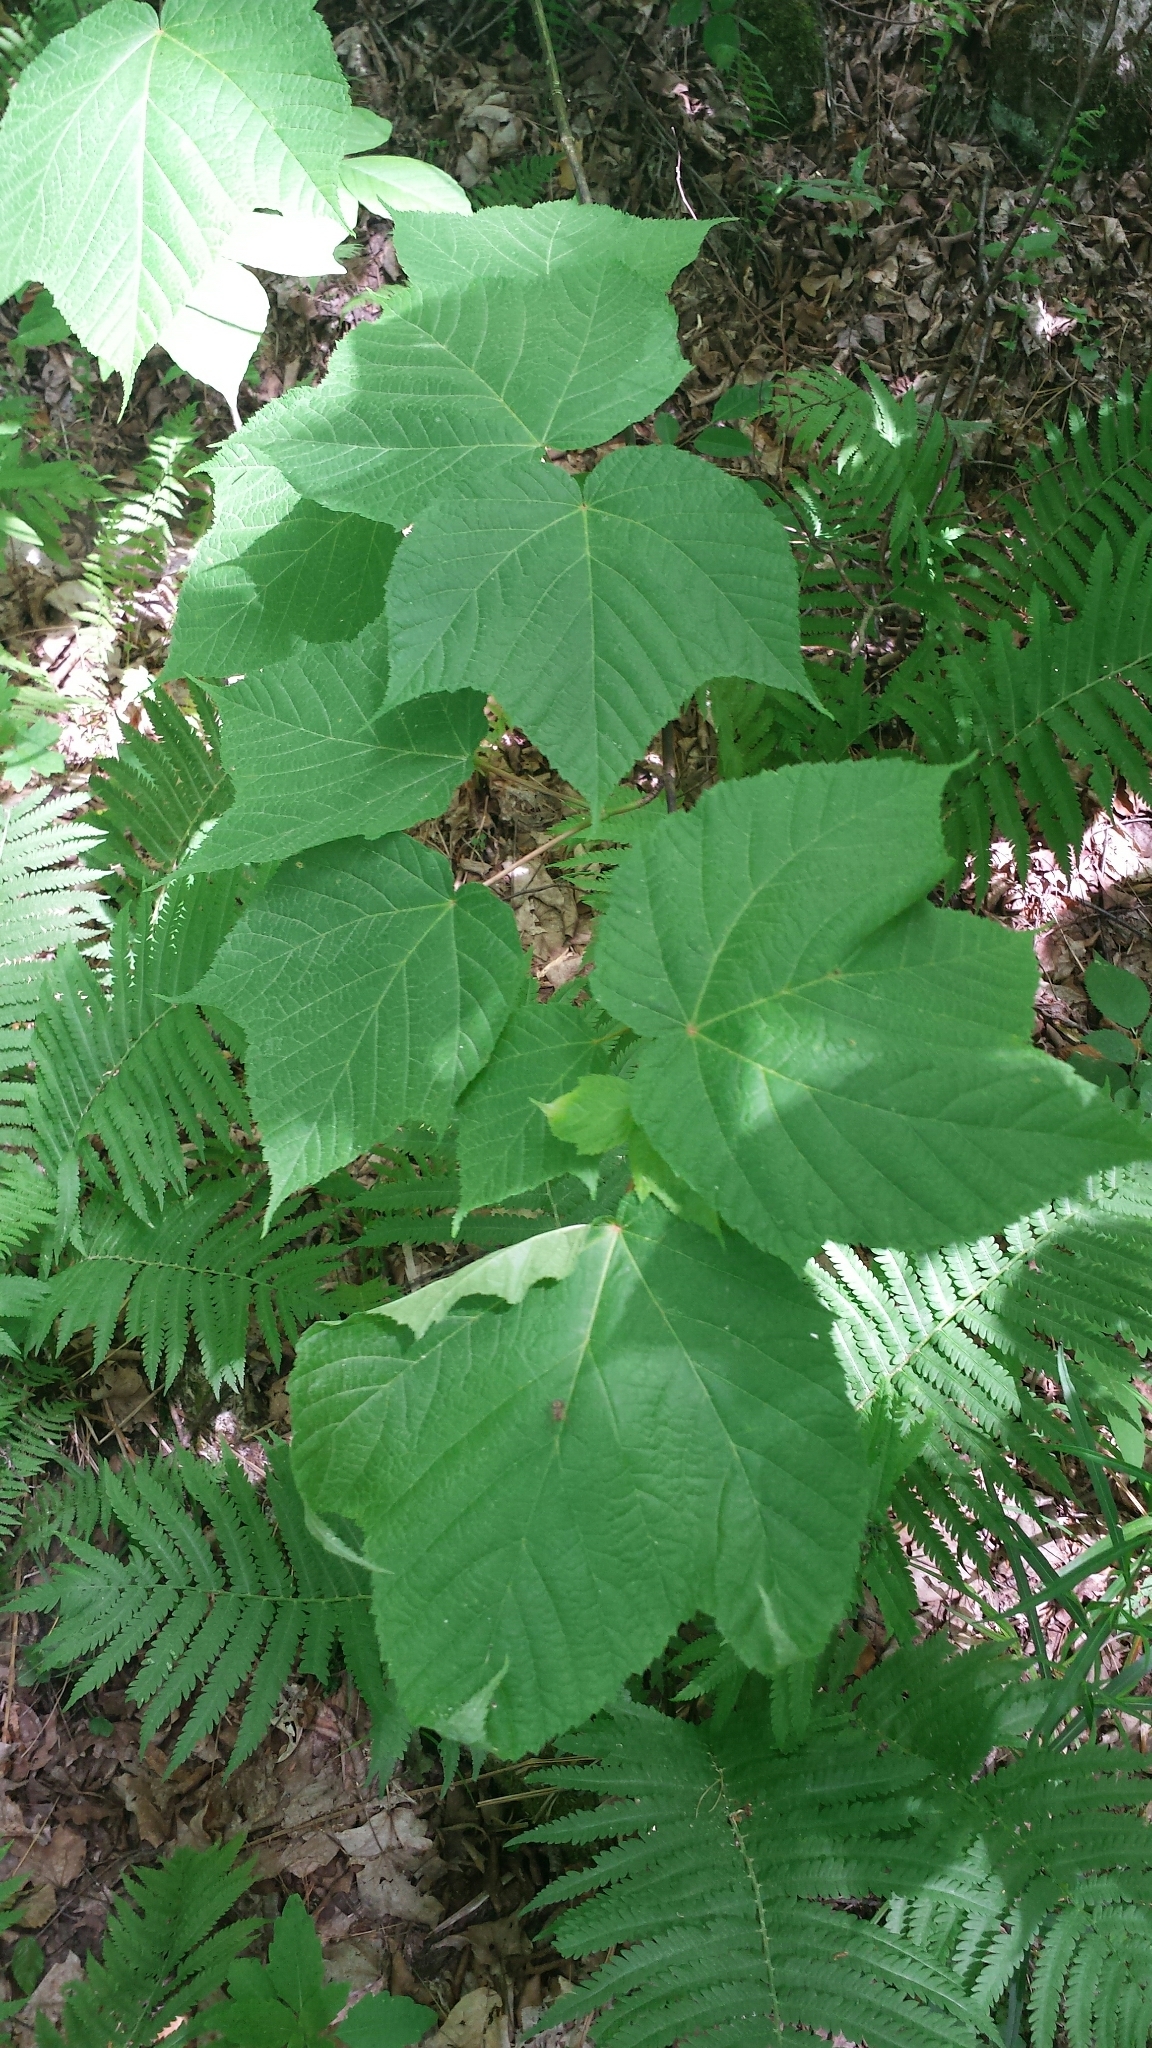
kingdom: Plantae
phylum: Tracheophyta
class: Magnoliopsida
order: Sapindales
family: Sapindaceae
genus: Acer
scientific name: Acer pensylvanicum
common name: Moosewood
